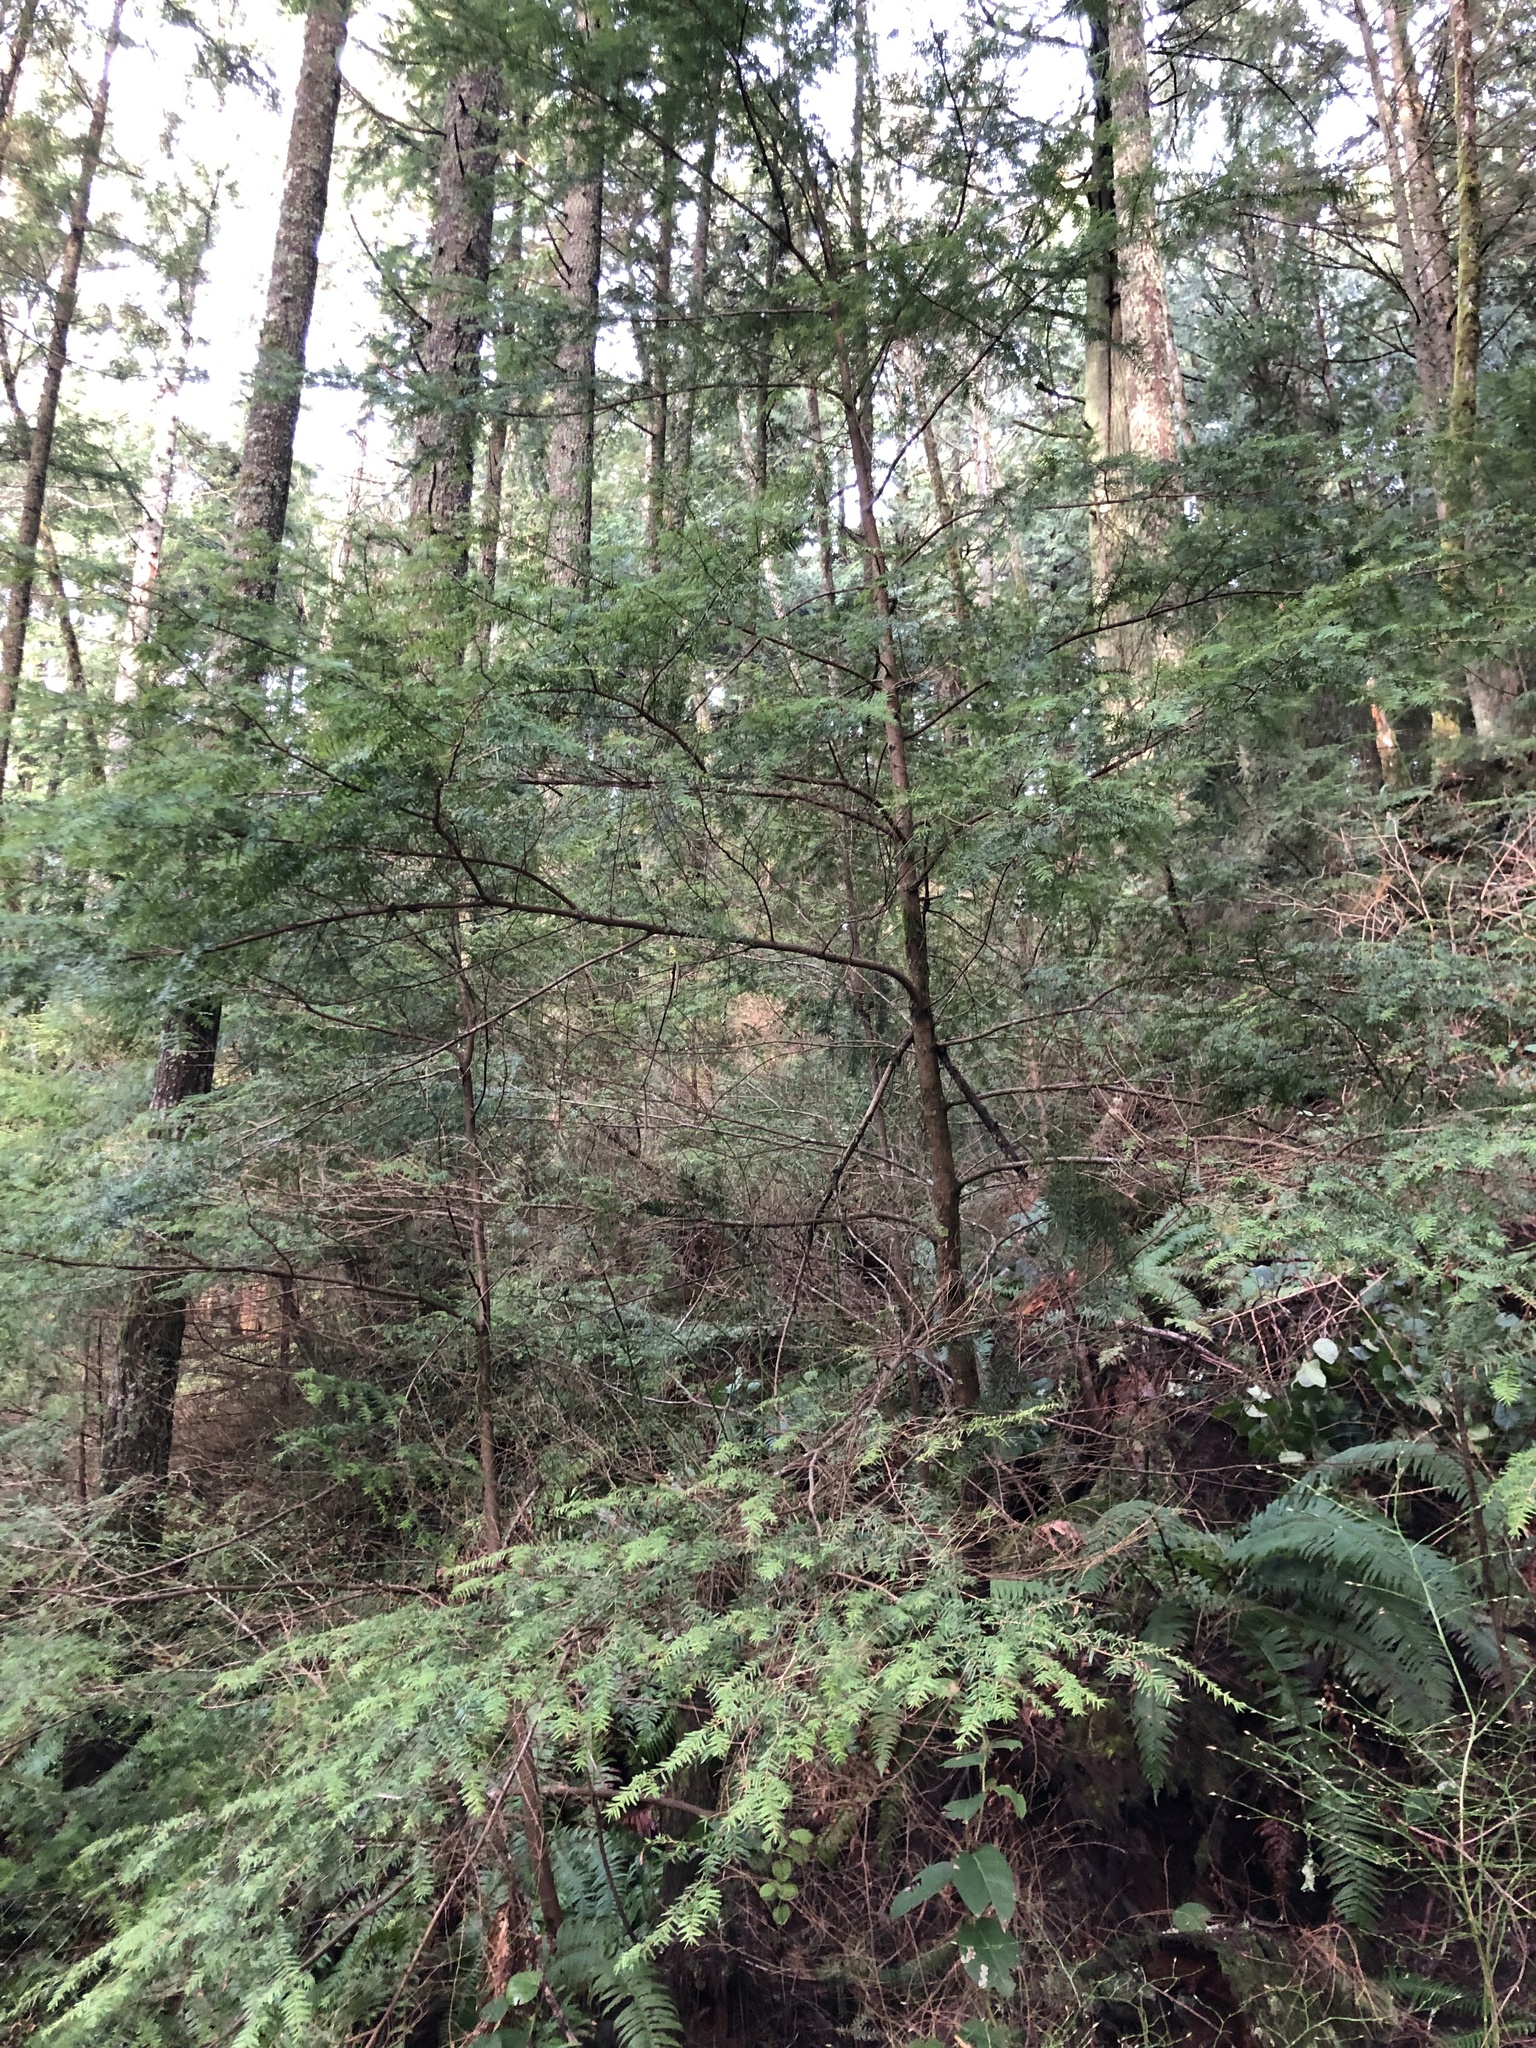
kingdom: Plantae
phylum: Tracheophyta
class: Pinopsida
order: Pinales
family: Pinaceae
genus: Tsuga
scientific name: Tsuga heterophylla
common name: Western hemlock
